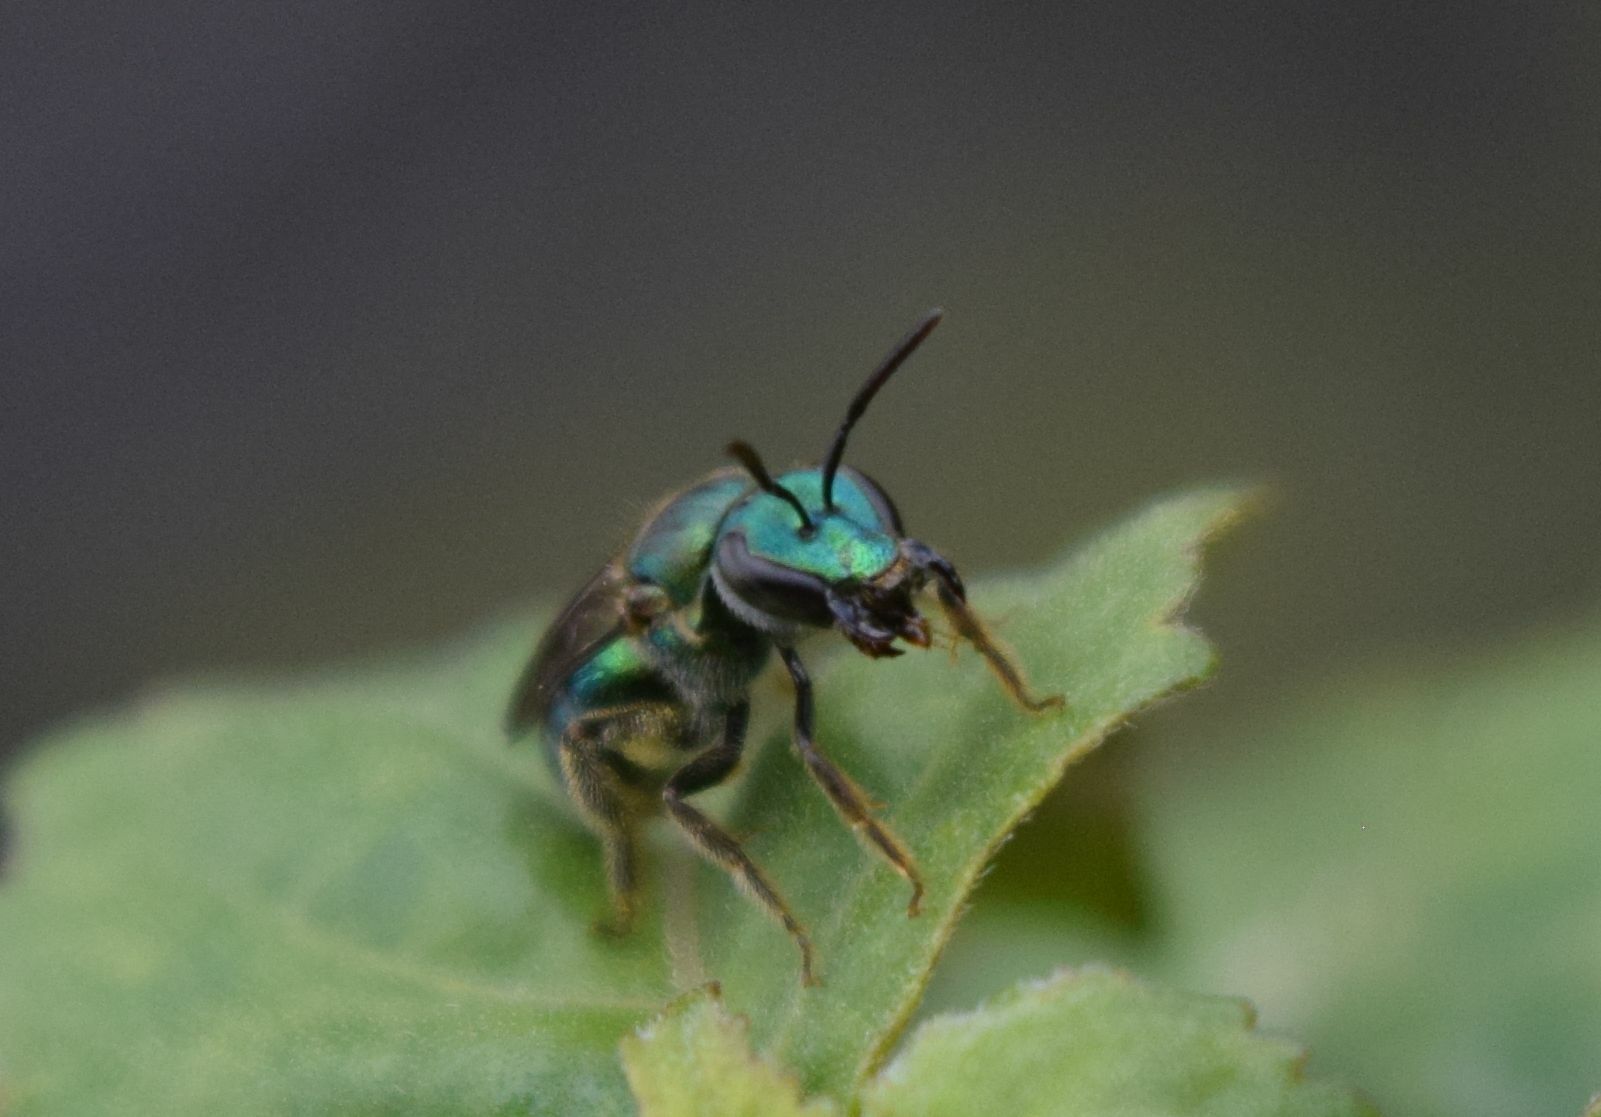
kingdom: Animalia
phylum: Arthropoda
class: Insecta
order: Hymenoptera
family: Halictidae
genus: Augochlora
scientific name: Augochlora pura
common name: Pure green sweat bee
